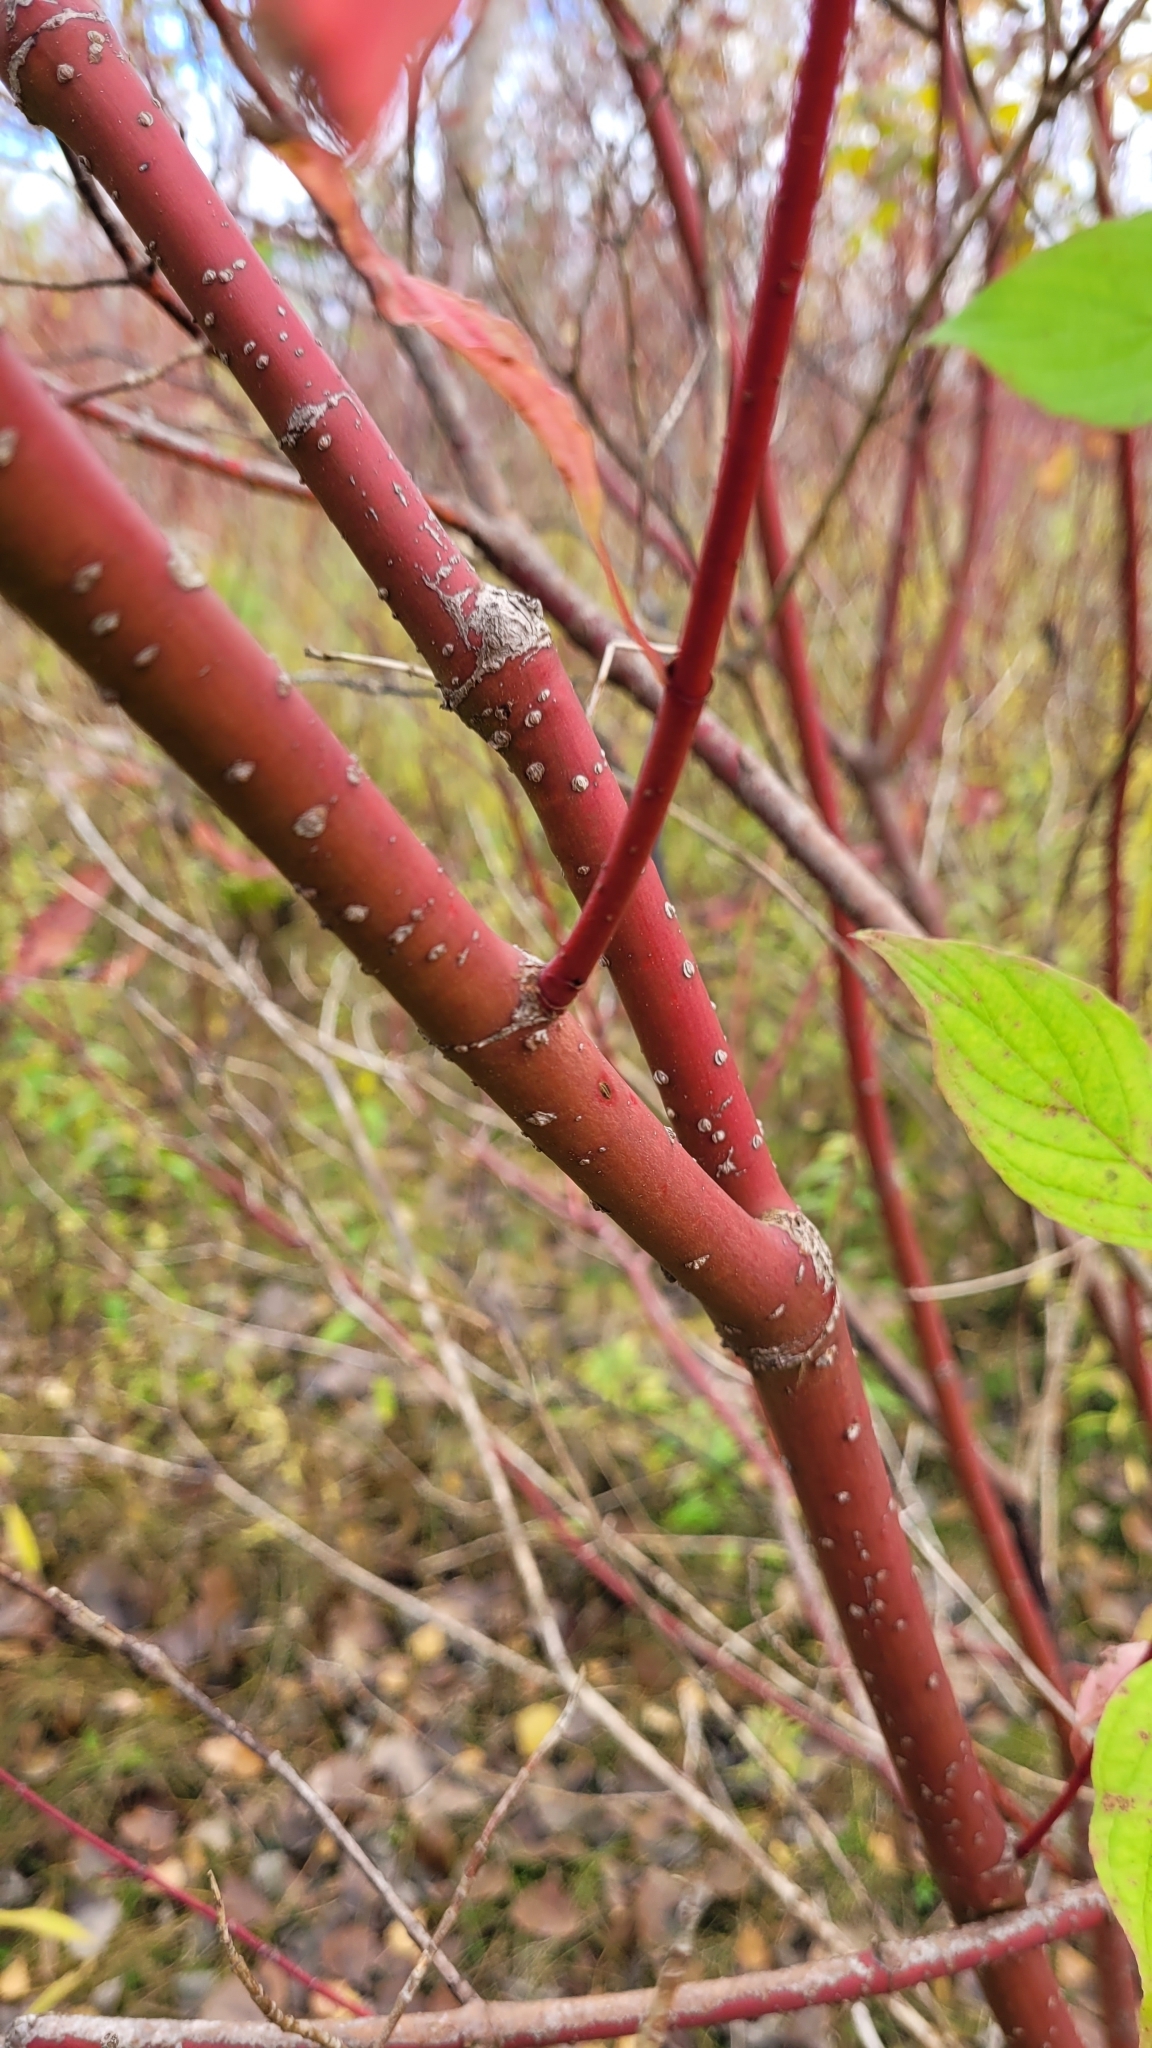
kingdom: Plantae
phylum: Tracheophyta
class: Magnoliopsida
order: Cornales
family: Cornaceae
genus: Cornus
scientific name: Cornus sericea
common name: Red-osier dogwood
